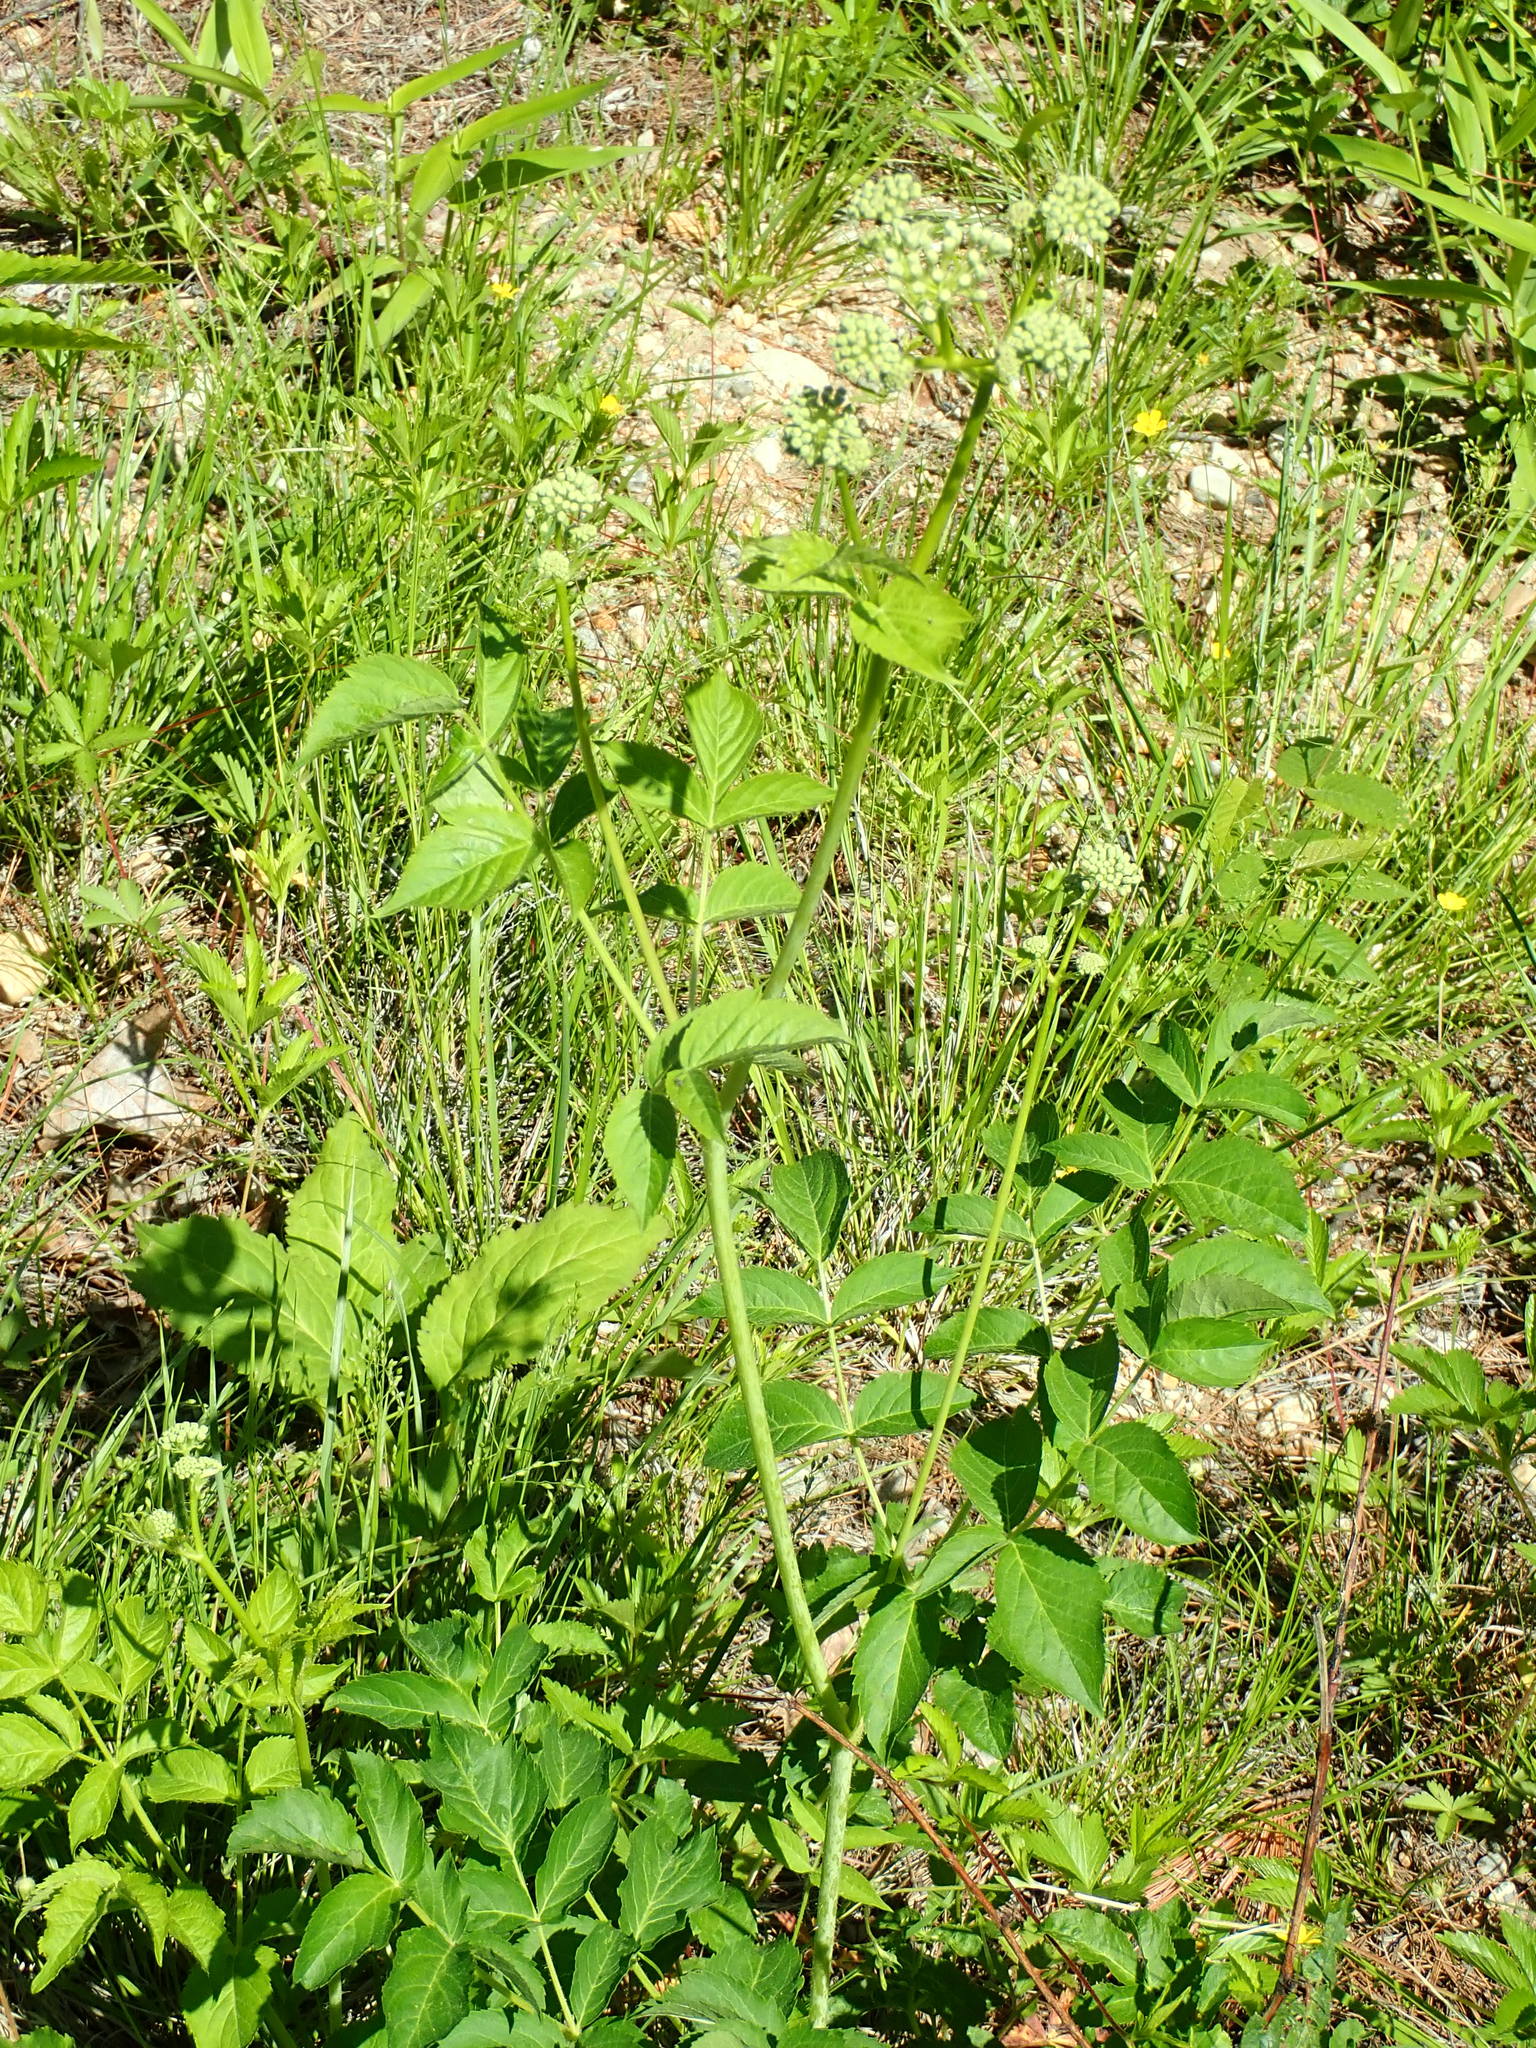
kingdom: Plantae
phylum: Tracheophyta
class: Magnoliopsida
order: Apiales
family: Araliaceae
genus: Aralia
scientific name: Aralia hispida
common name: Bristly sarsaparilla
